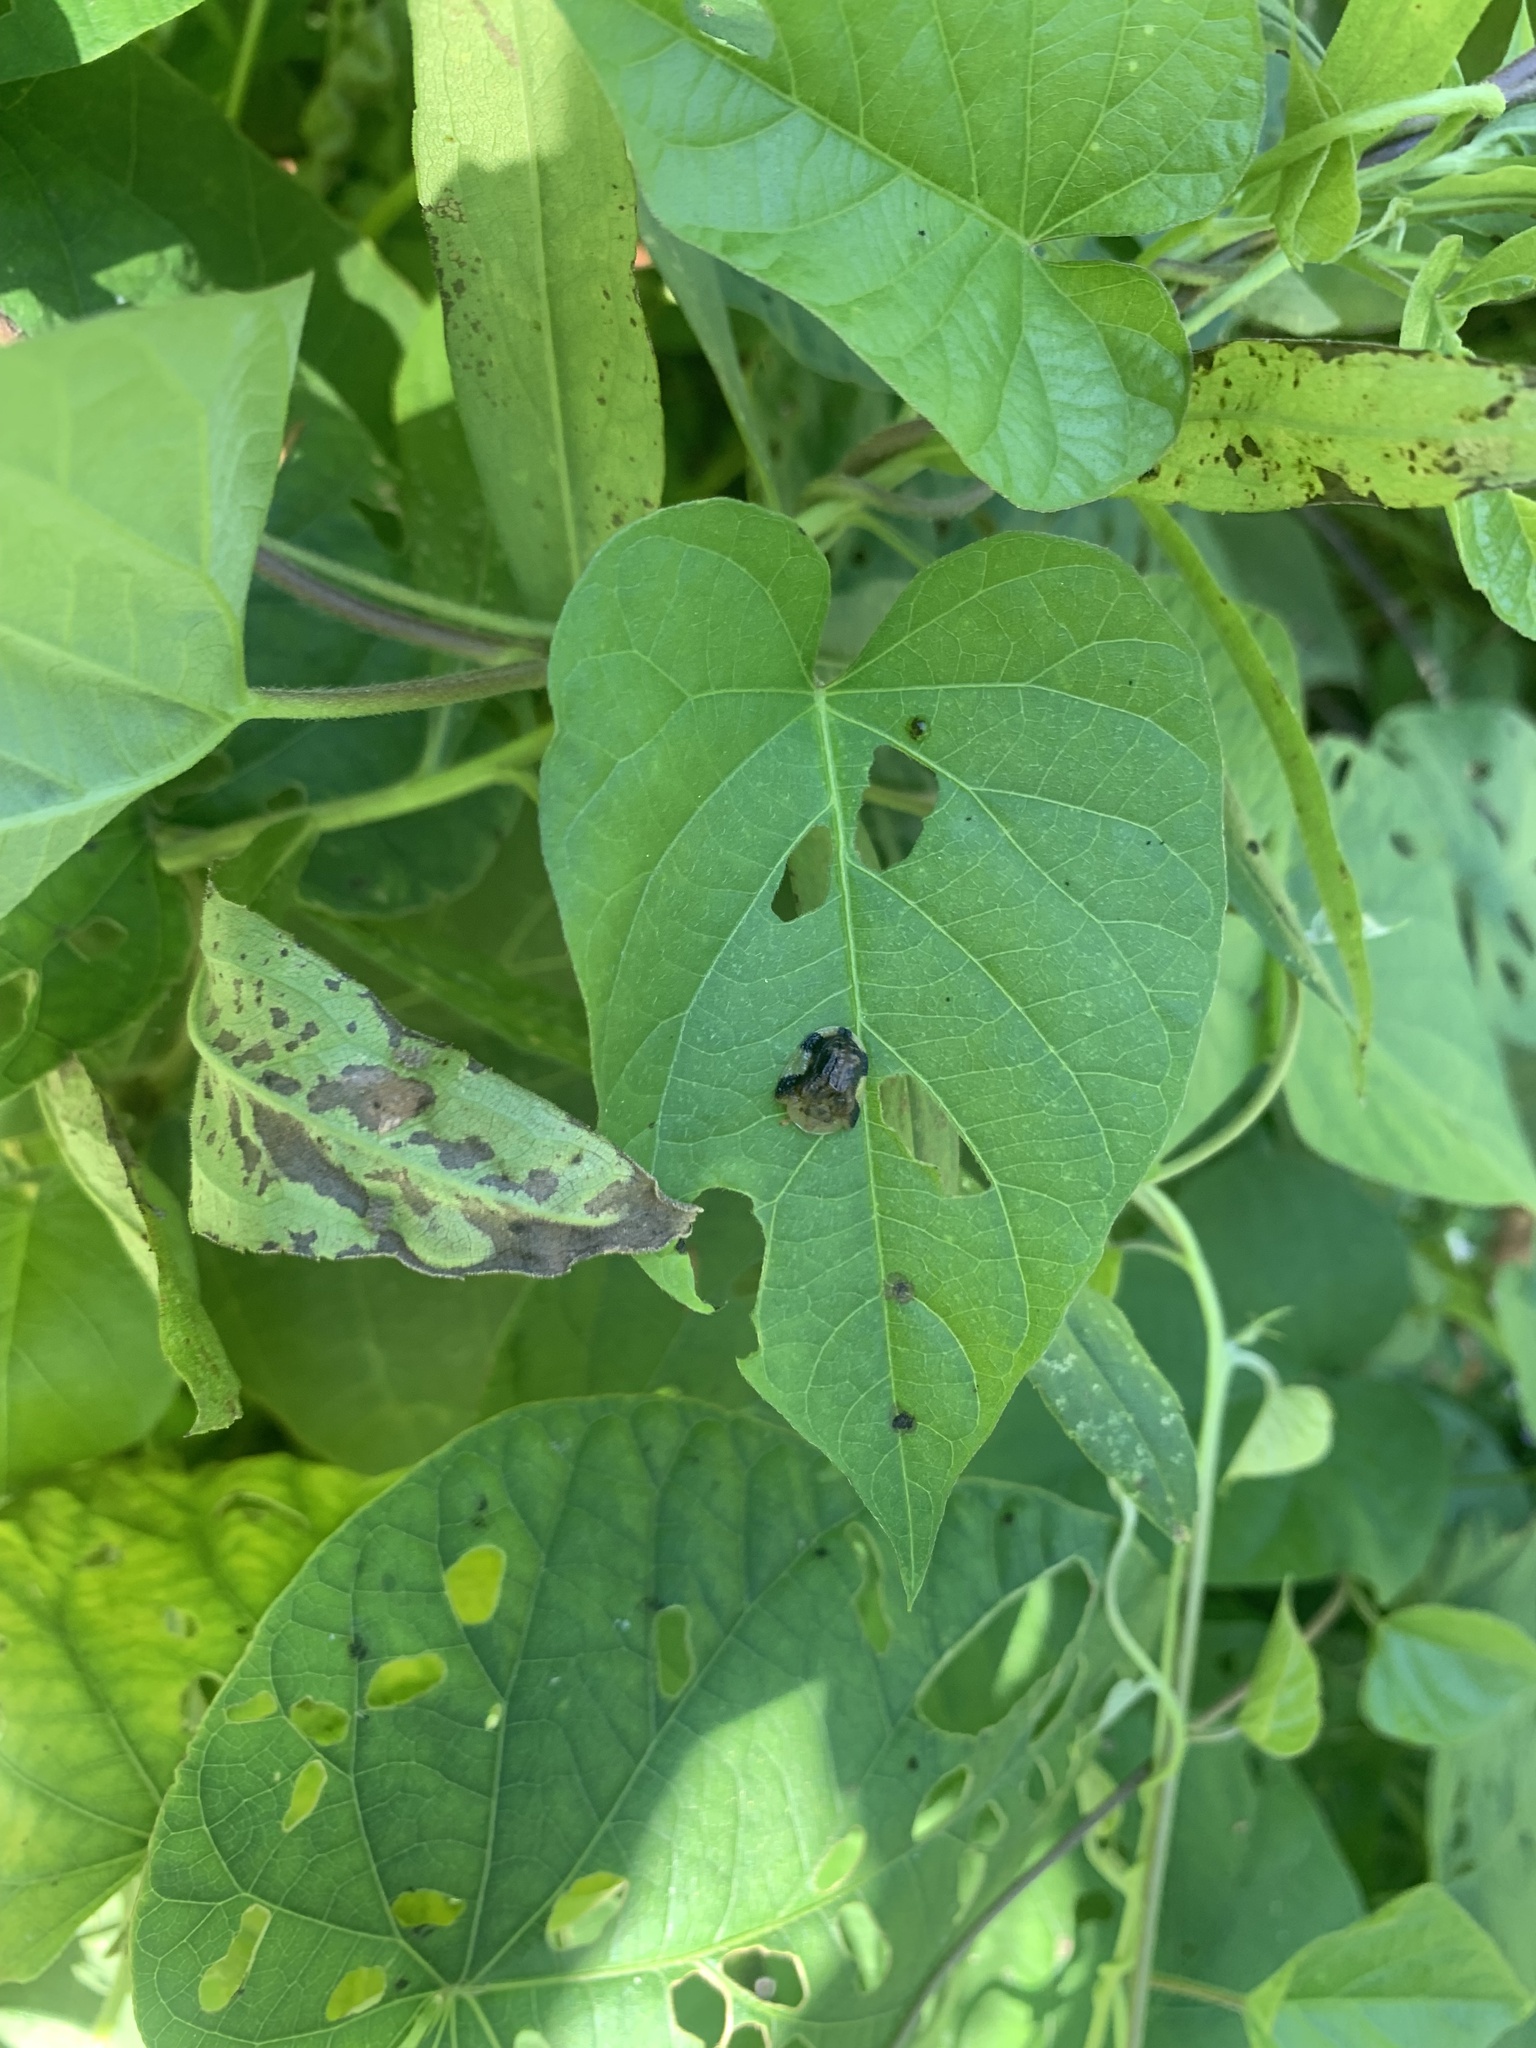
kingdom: Animalia
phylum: Arthropoda
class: Insecta
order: Coleoptera
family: Chrysomelidae
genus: Laccoptera
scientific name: Laccoptera nepalensis
